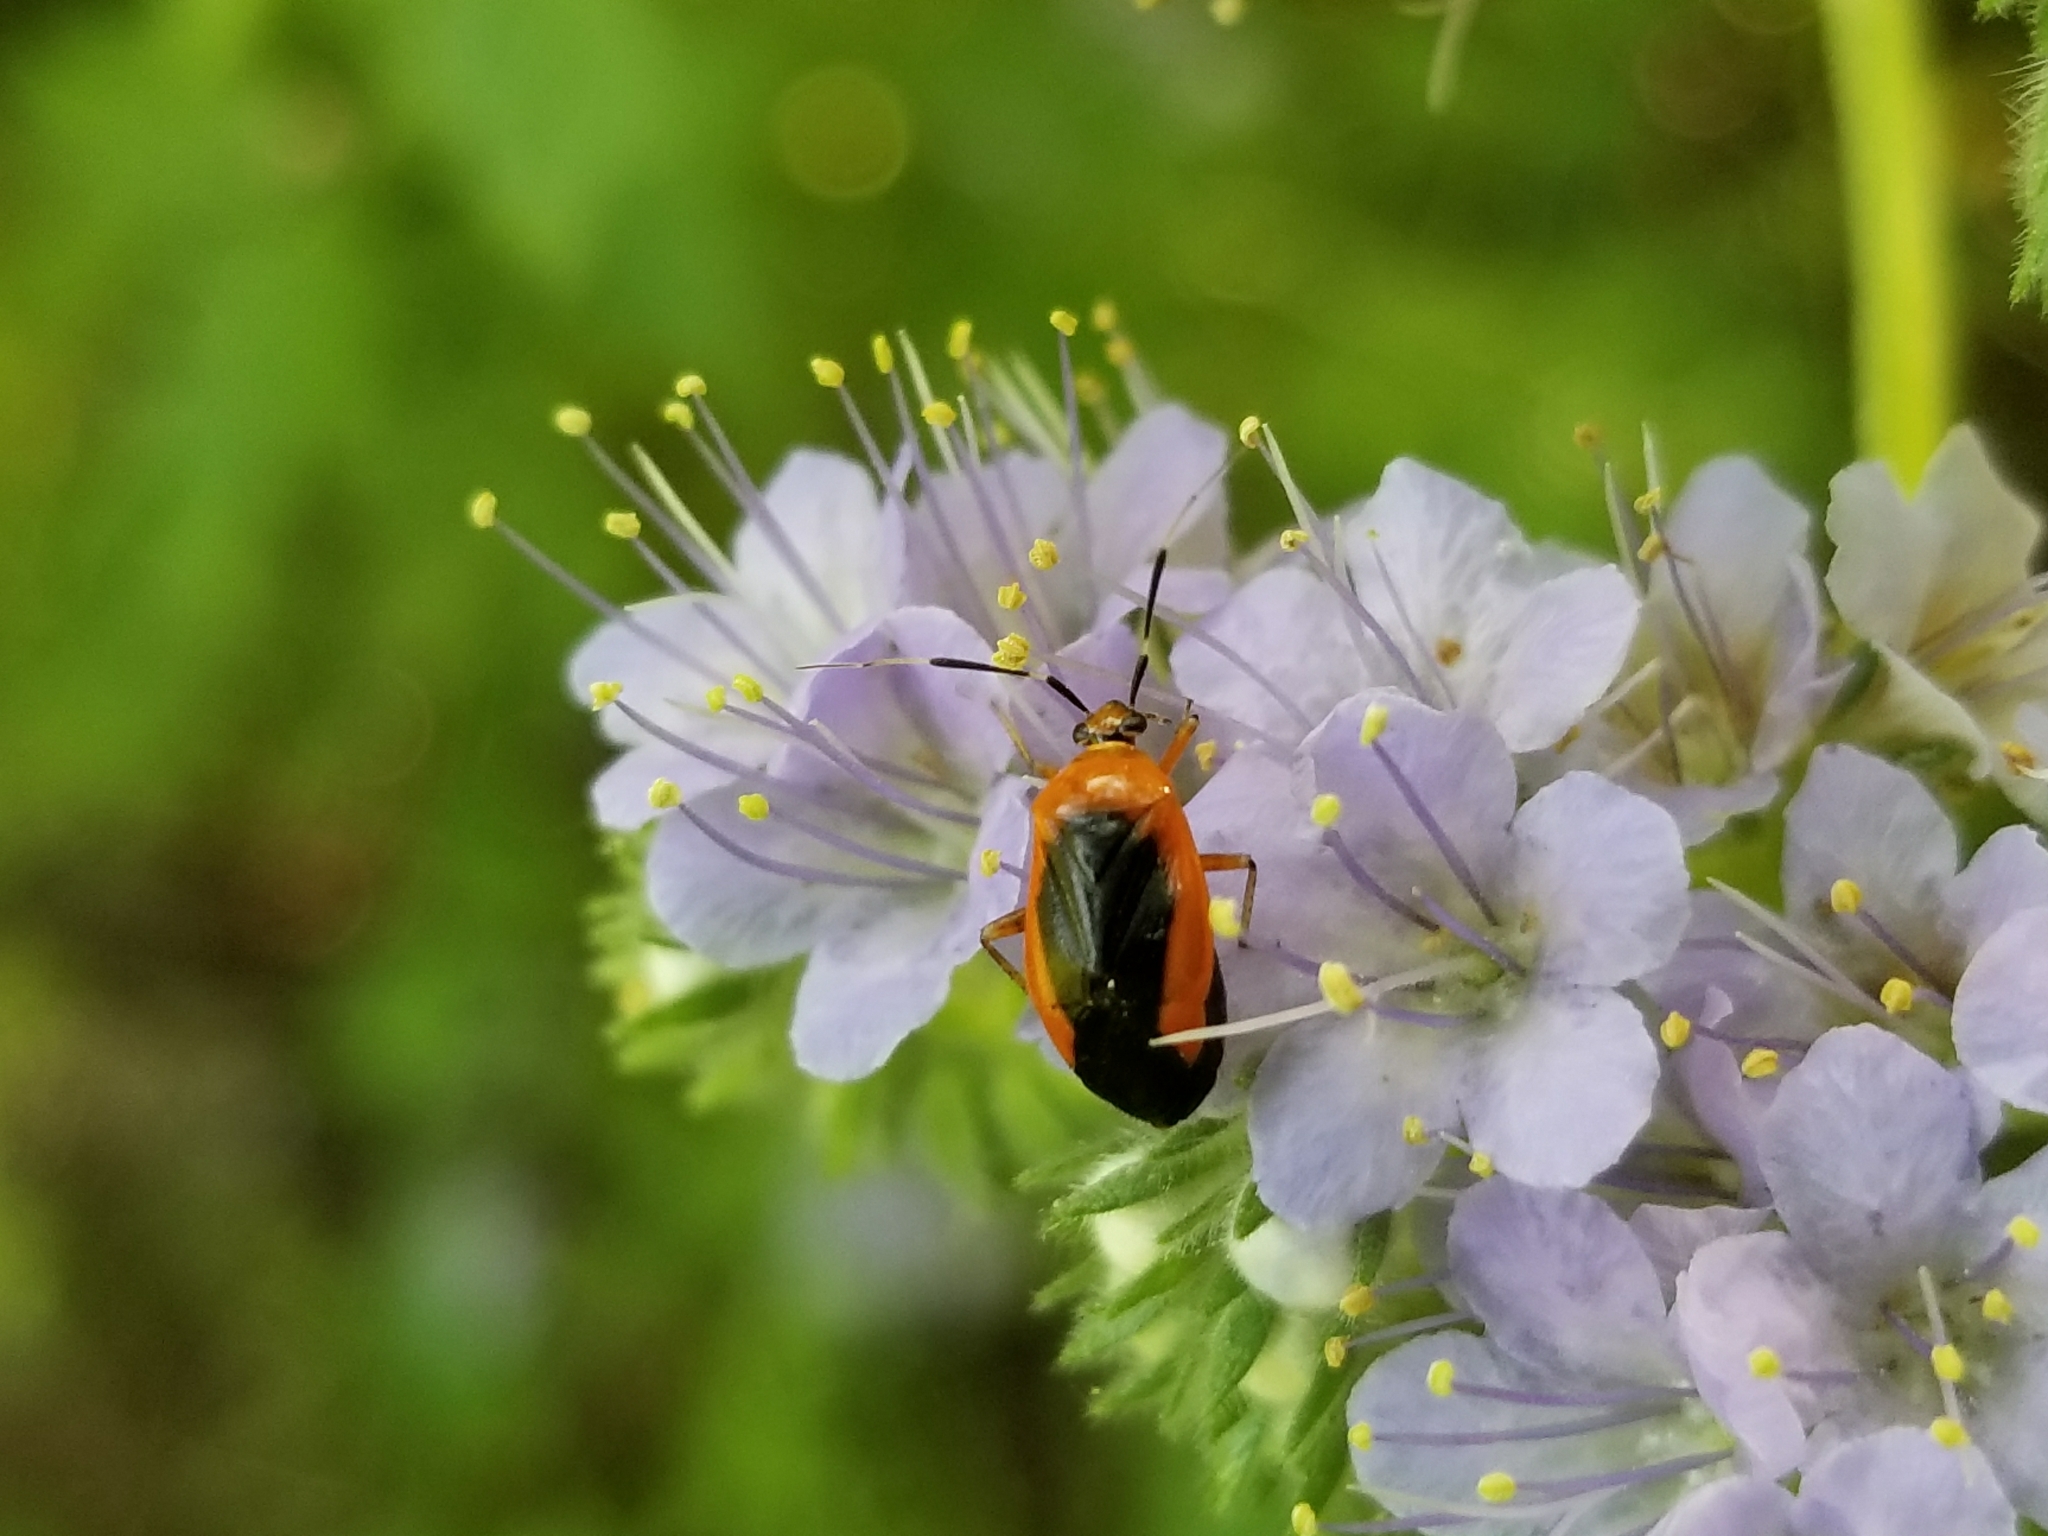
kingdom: Animalia
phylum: Arthropoda
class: Insecta
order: Hemiptera
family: Miridae
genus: Metriorrhynchomiris
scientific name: Metriorrhynchomiris dislocatus
